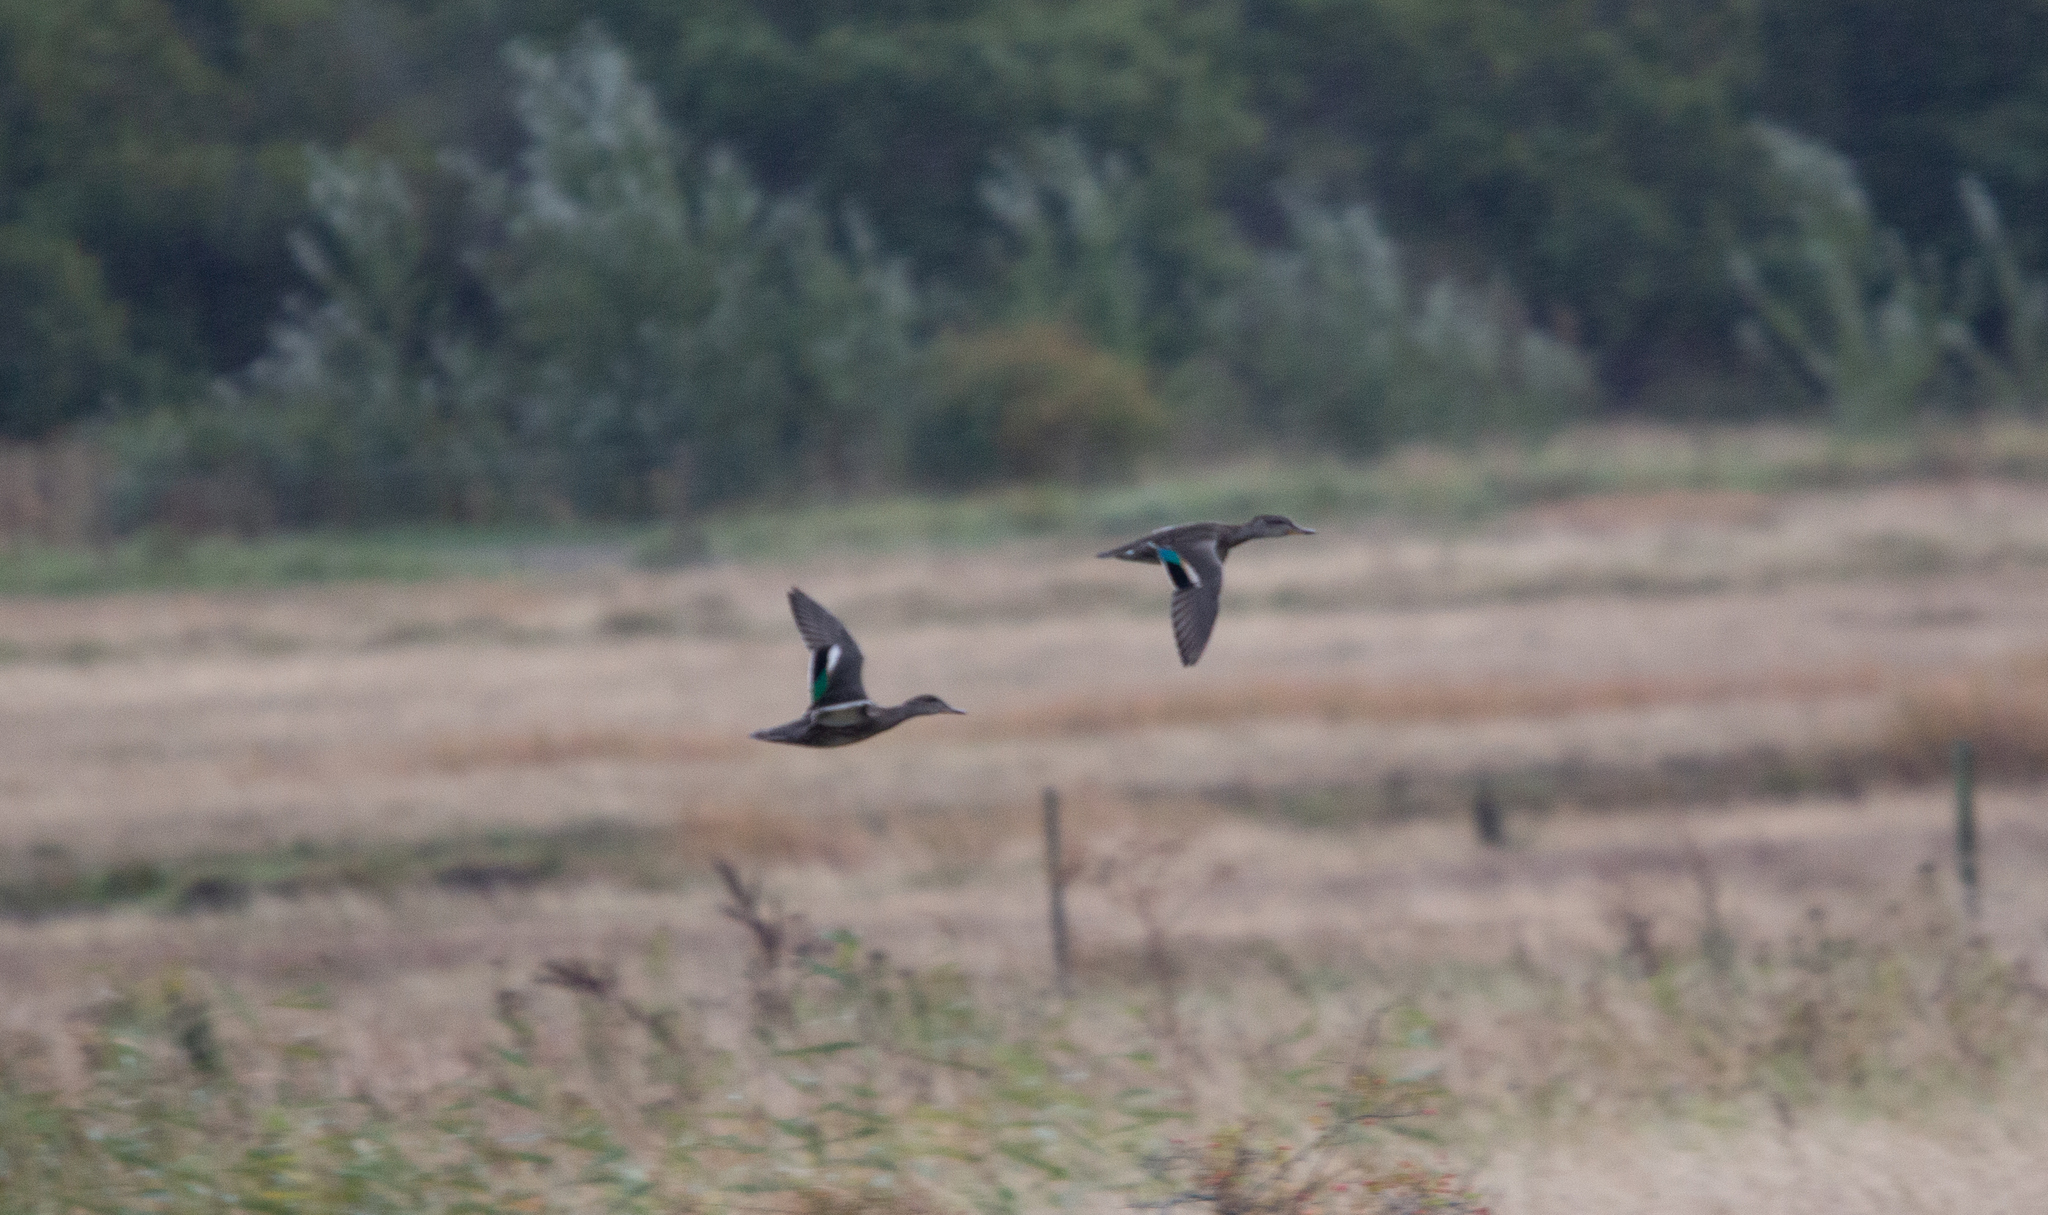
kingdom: Animalia
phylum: Chordata
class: Aves
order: Anseriformes
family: Anatidae
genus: Anas
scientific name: Anas crecca
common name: Eurasian teal
